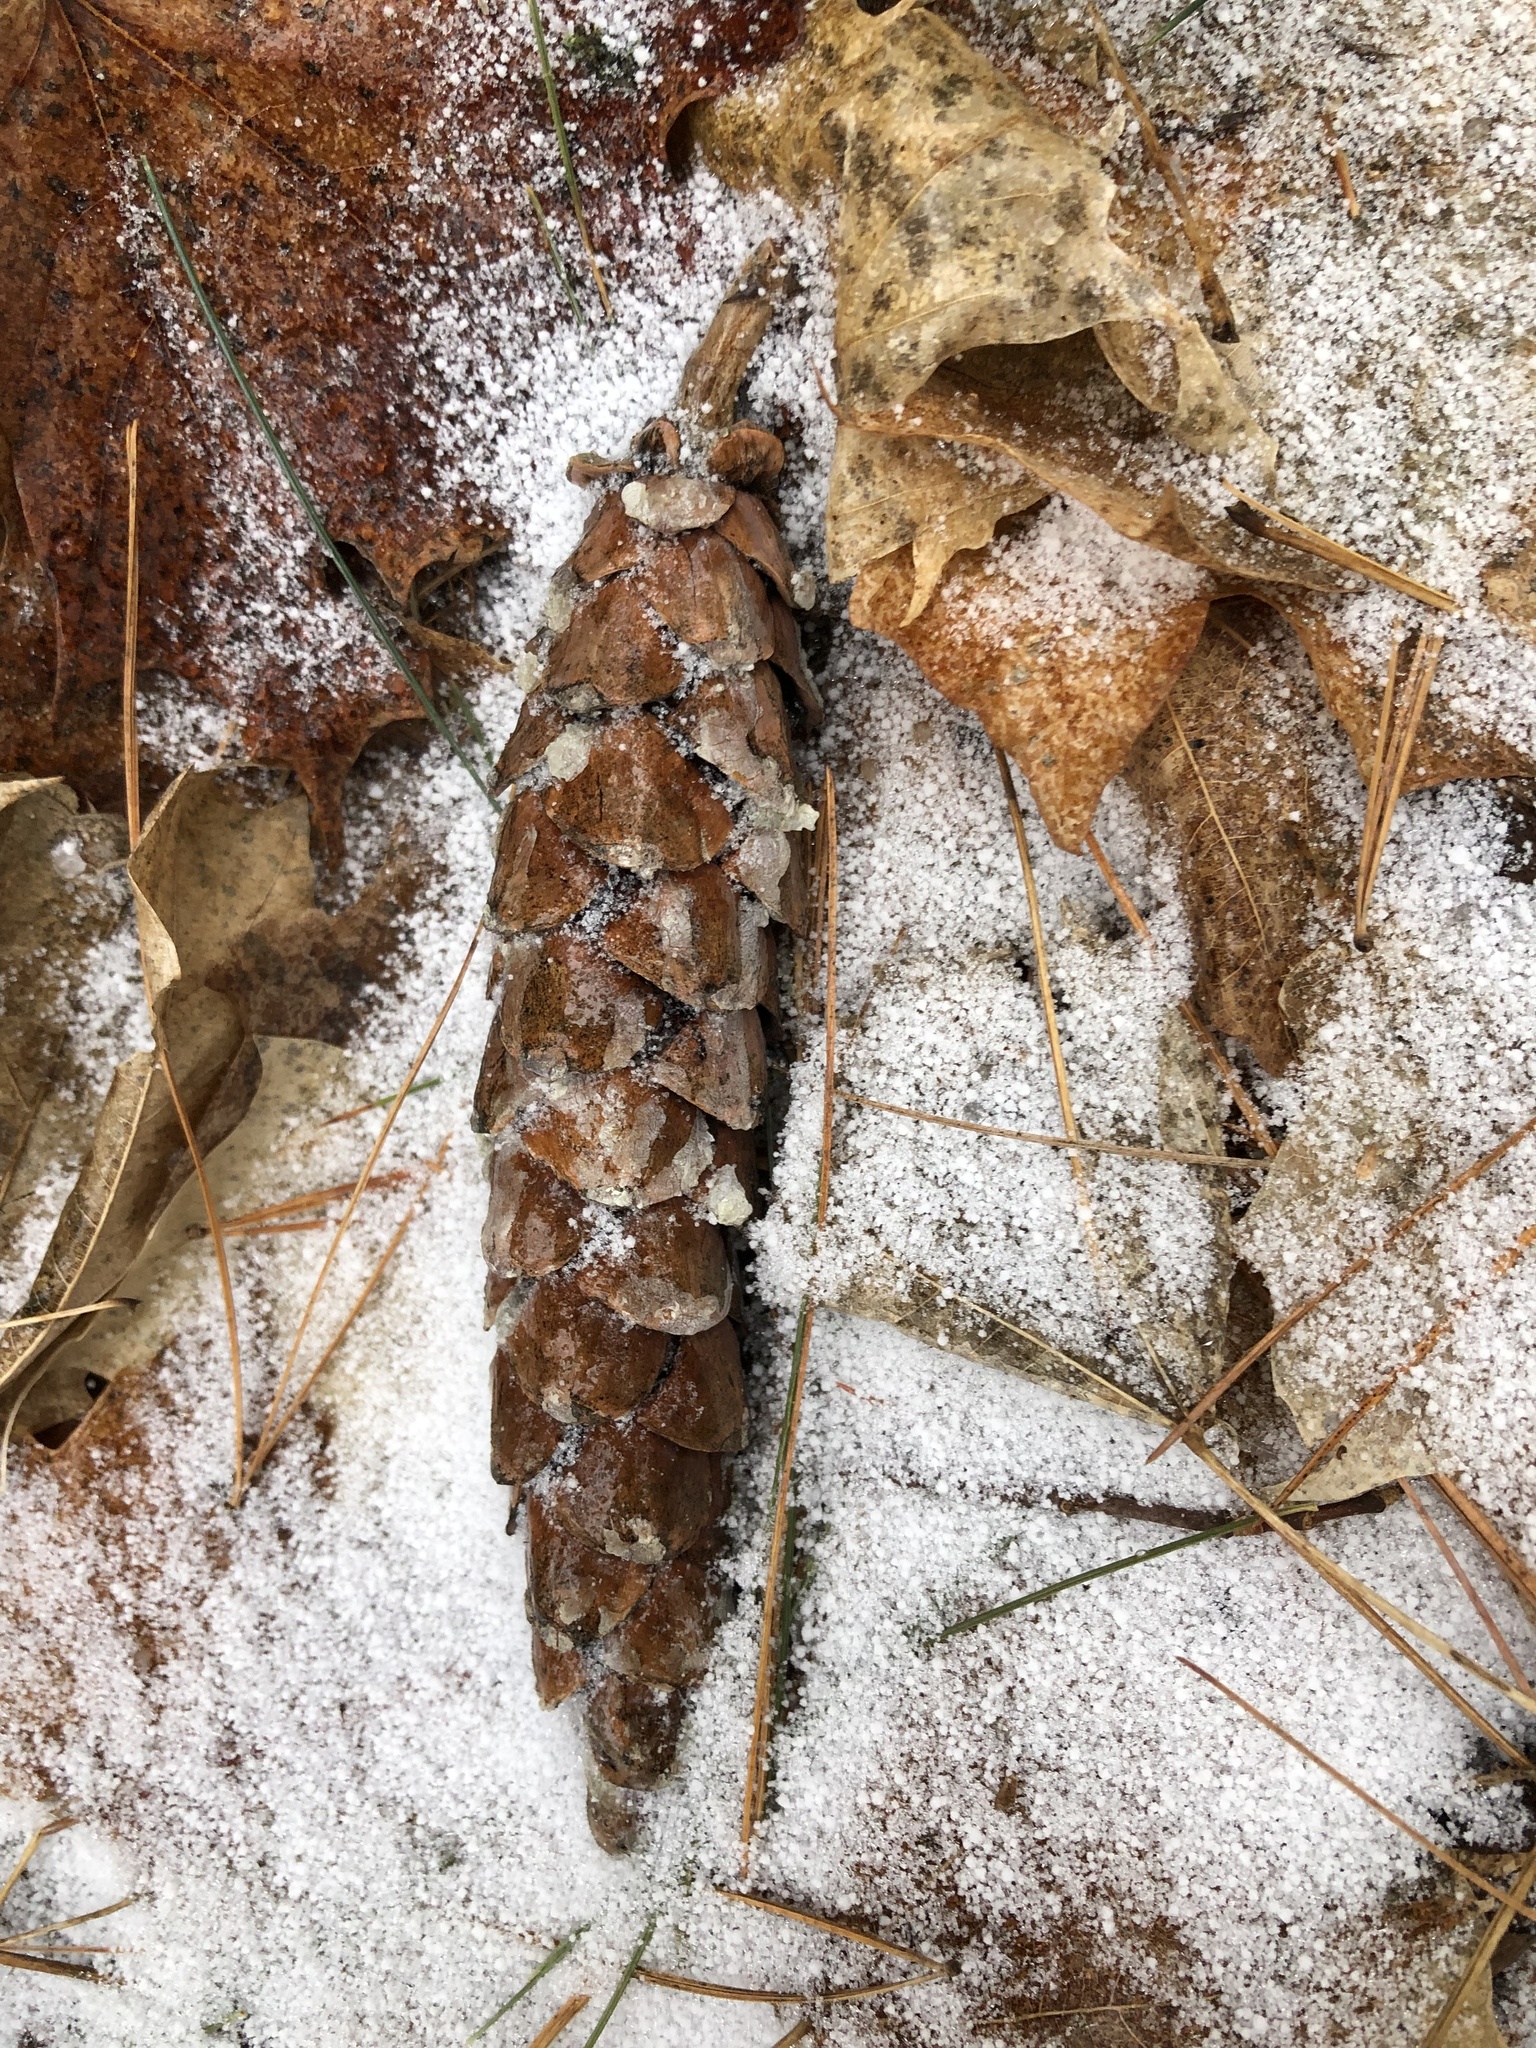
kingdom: Plantae
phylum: Tracheophyta
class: Pinopsida
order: Pinales
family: Pinaceae
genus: Pinus
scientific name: Pinus strobus
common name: Weymouth pine
